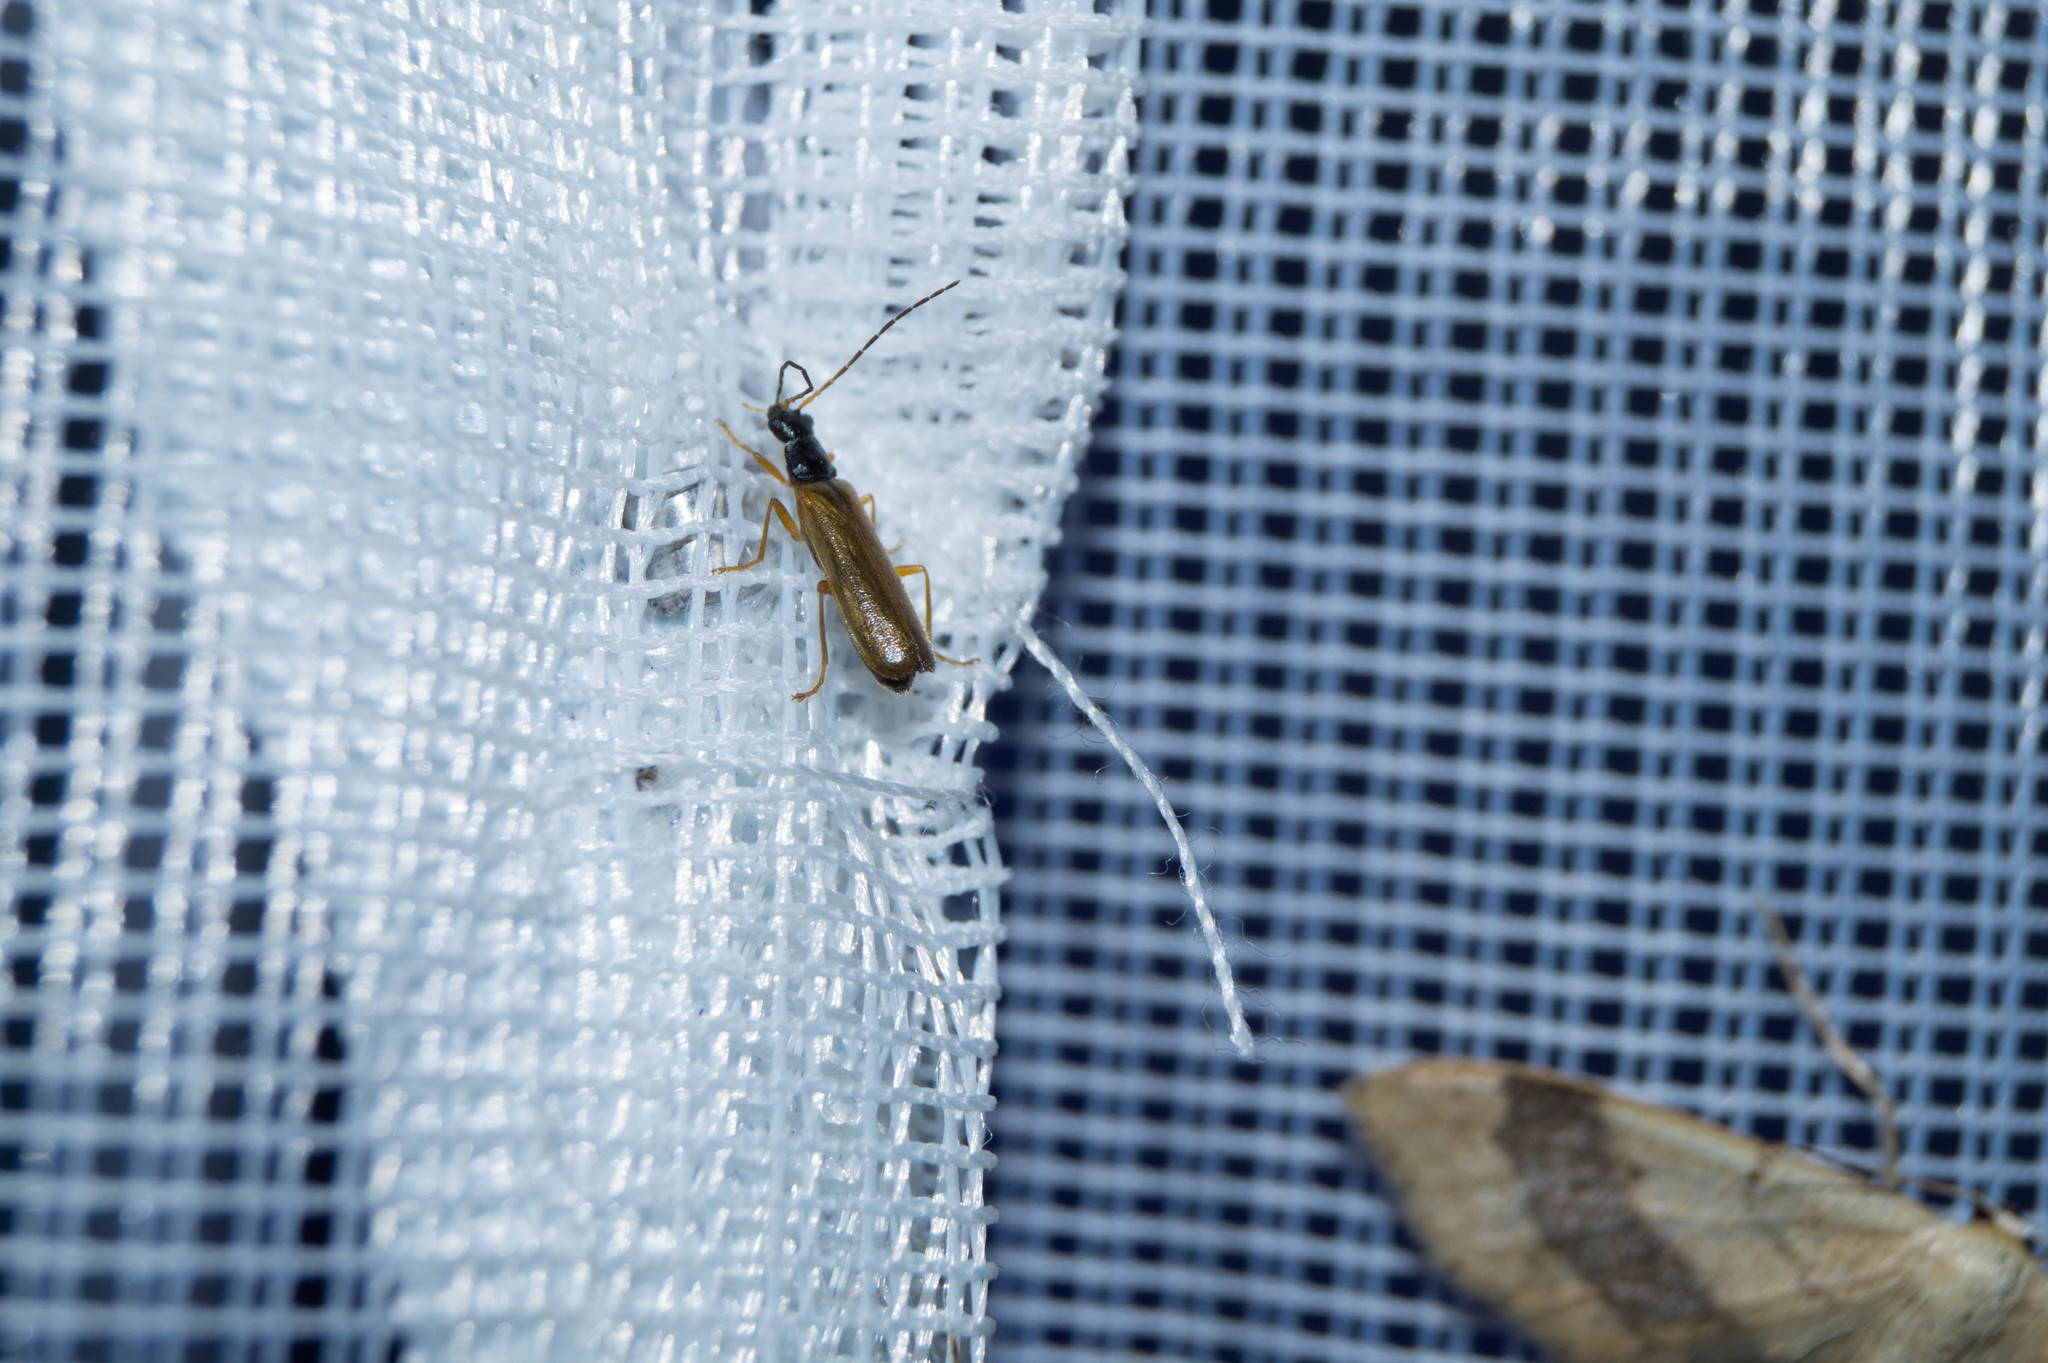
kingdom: Animalia
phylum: Arthropoda
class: Insecta
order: Coleoptera
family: Cantharidae
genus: Rhagonycha
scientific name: Rhagonycha lignosa
